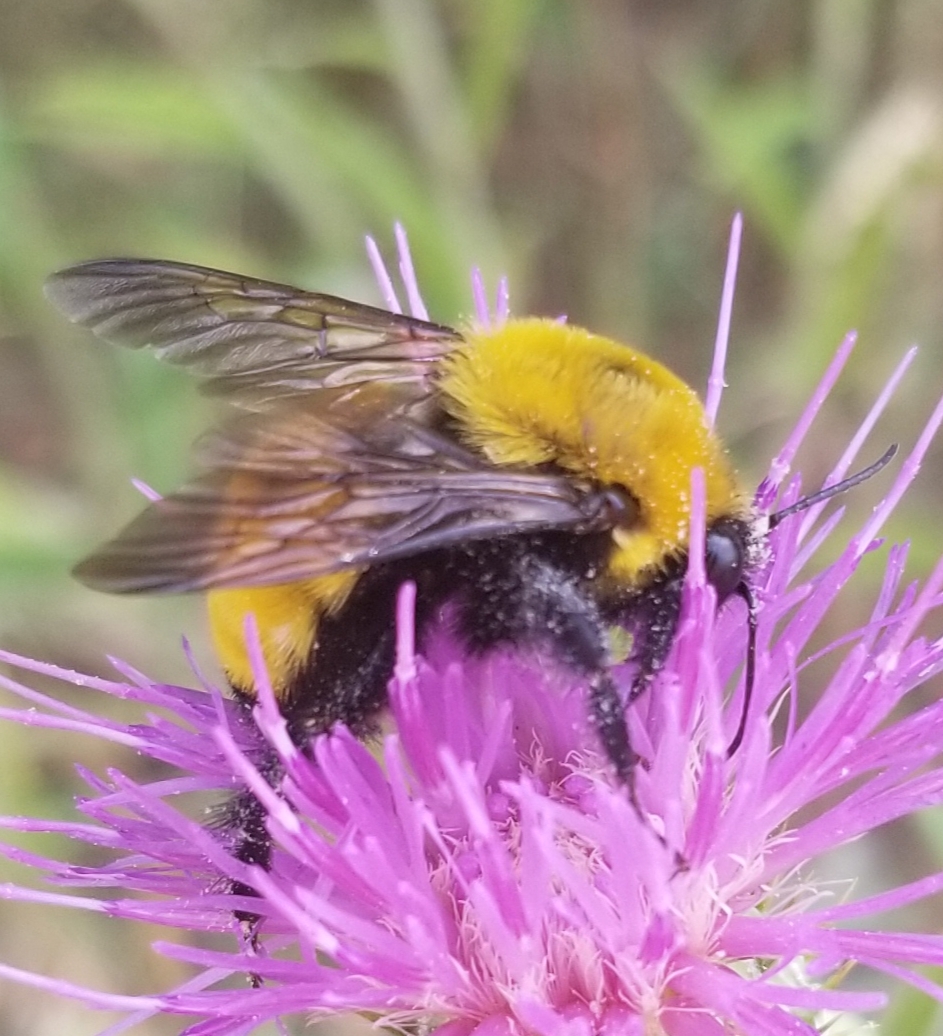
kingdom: Animalia
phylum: Arthropoda
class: Insecta
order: Hymenoptera
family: Apidae
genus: Bombus
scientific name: Bombus morrisoni
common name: Morrison bumble bee
